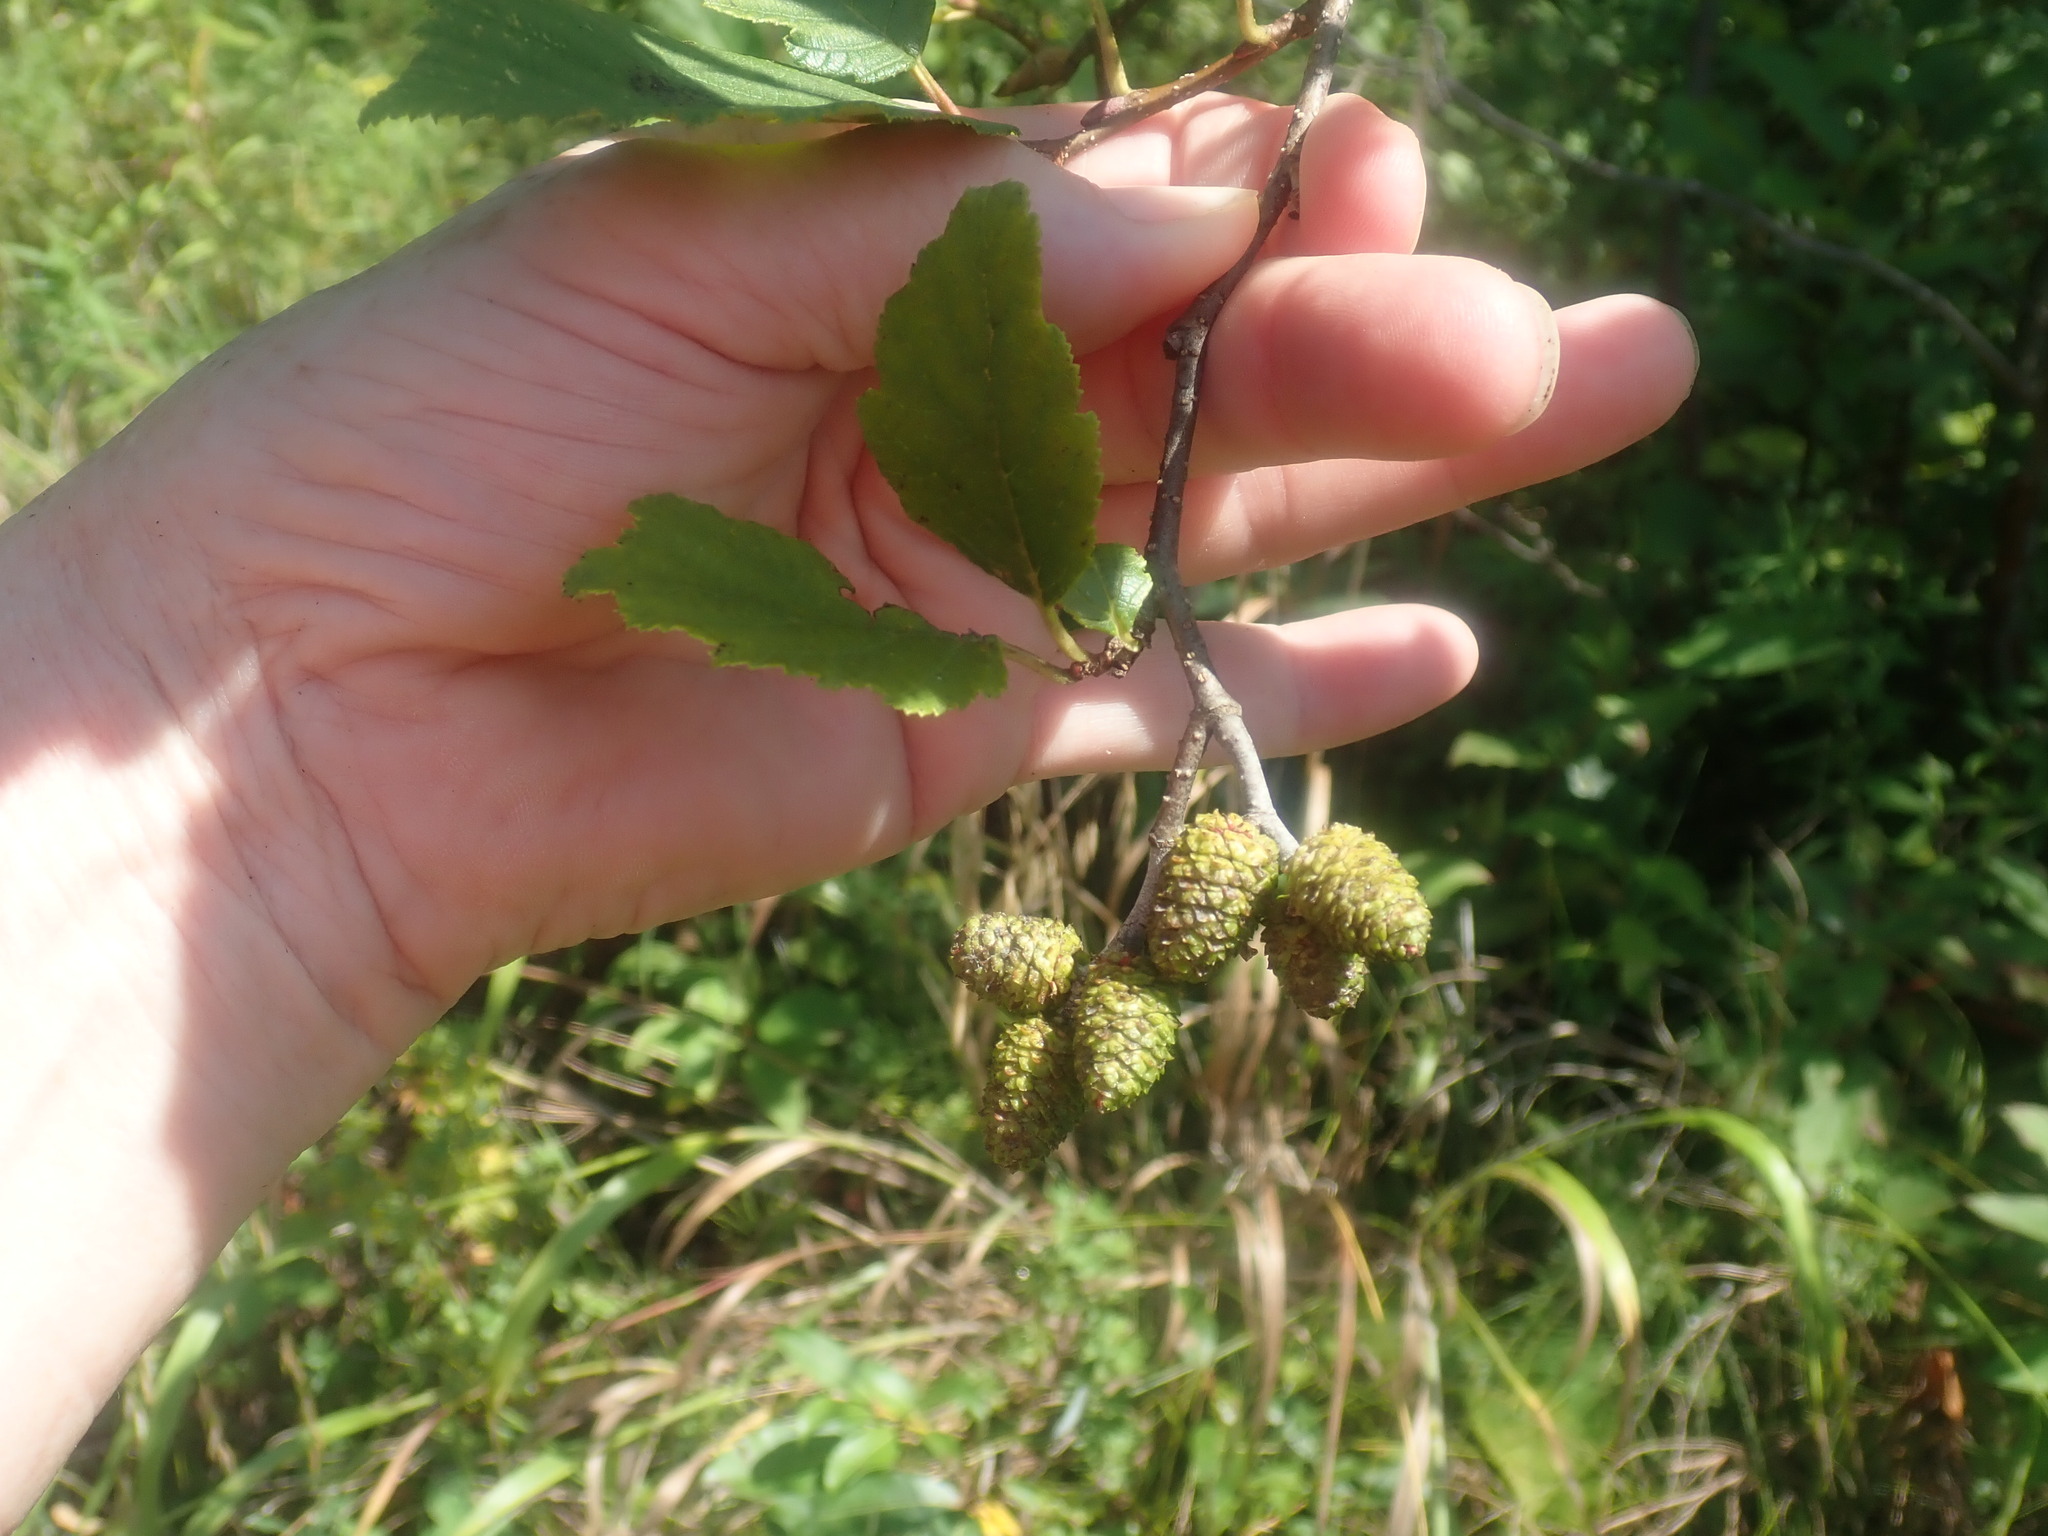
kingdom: Plantae
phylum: Tracheophyta
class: Magnoliopsida
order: Fagales
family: Betulaceae
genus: Alnus
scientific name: Alnus
